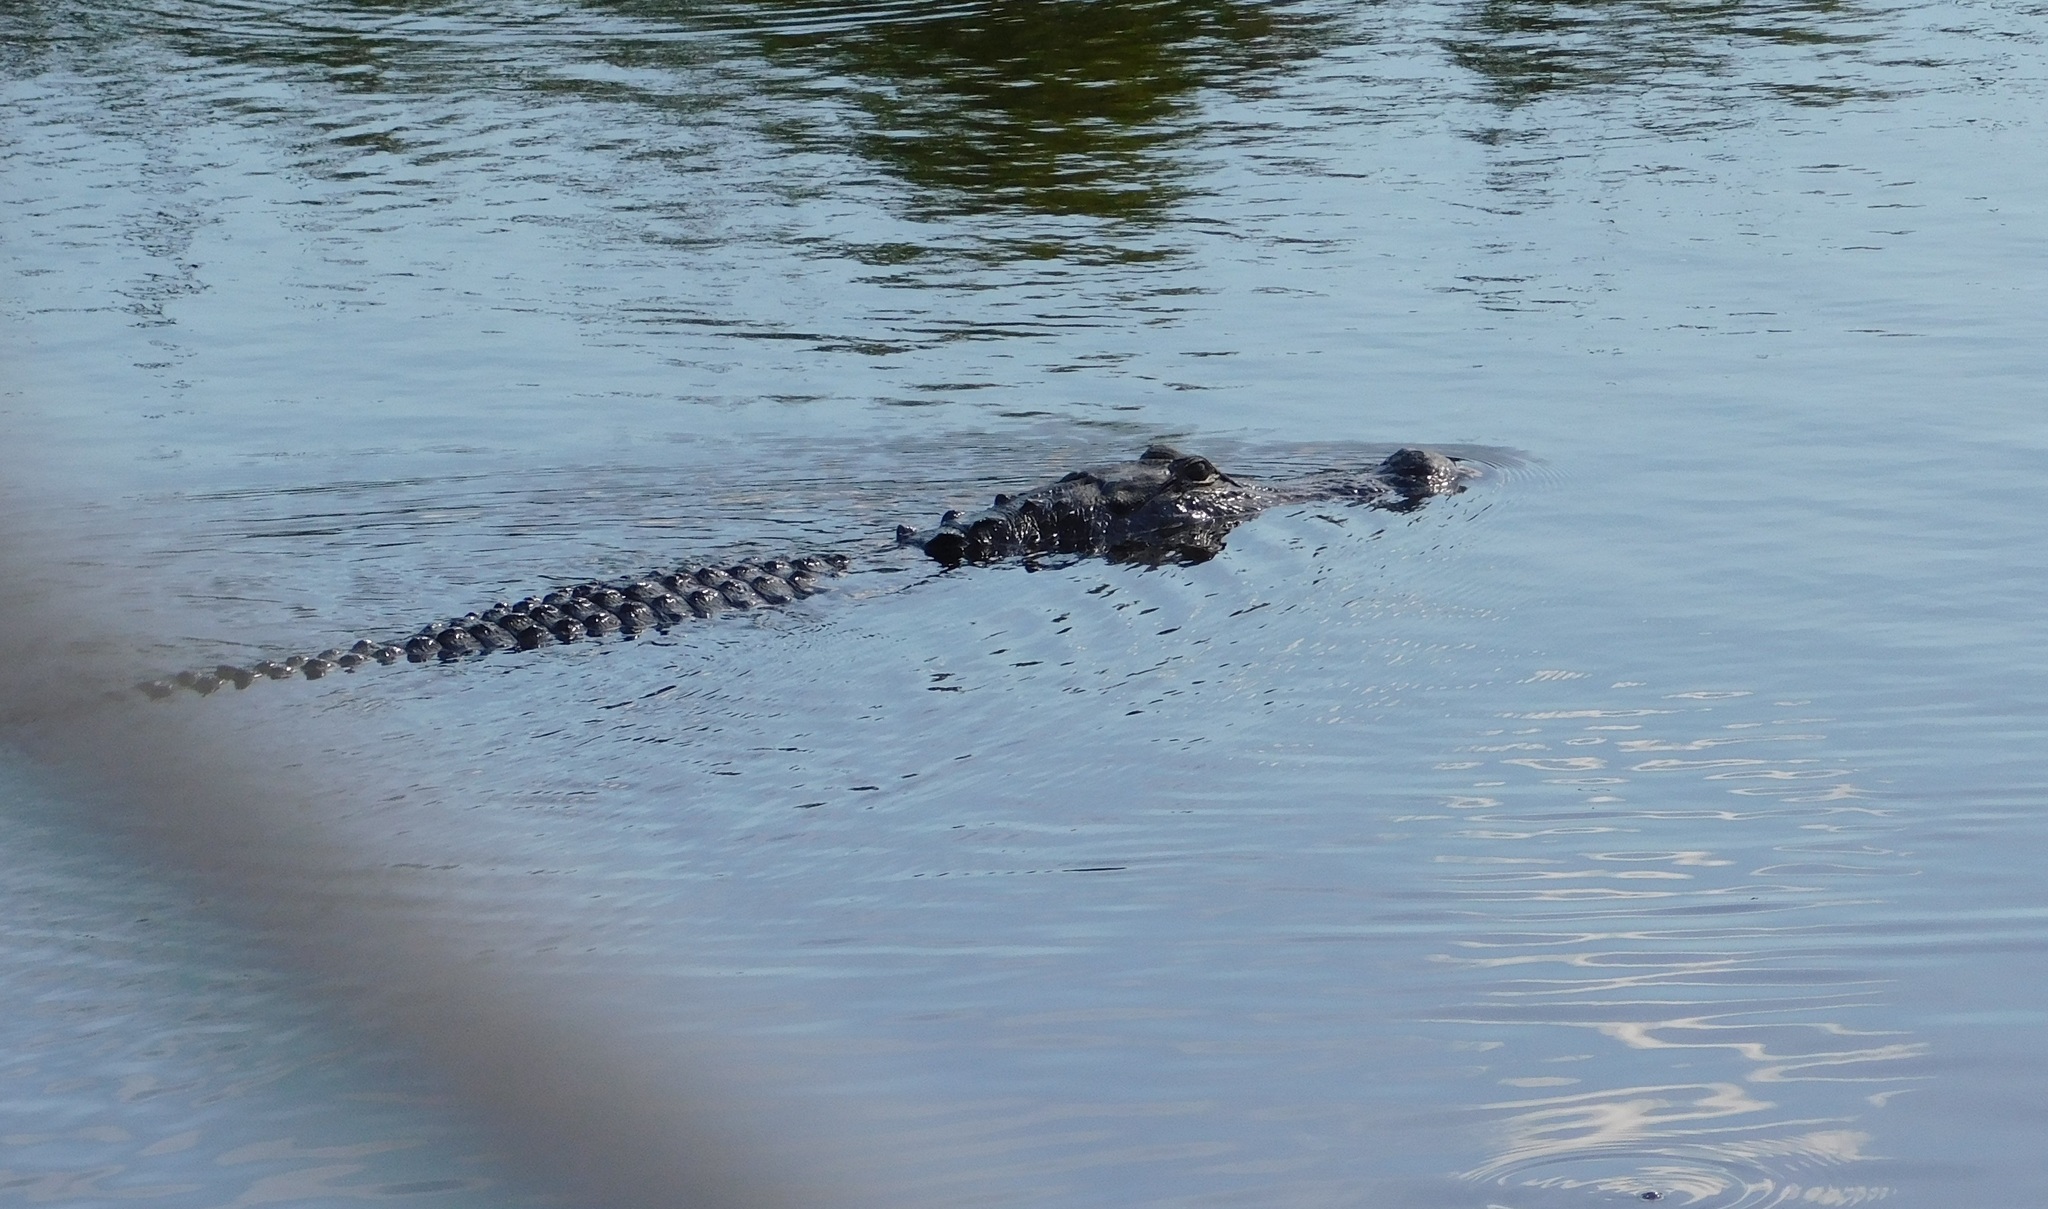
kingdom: Animalia
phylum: Chordata
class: Crocodylia
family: Alligatoridae
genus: Alligator
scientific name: Alligator mississippiensis
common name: American alligator
